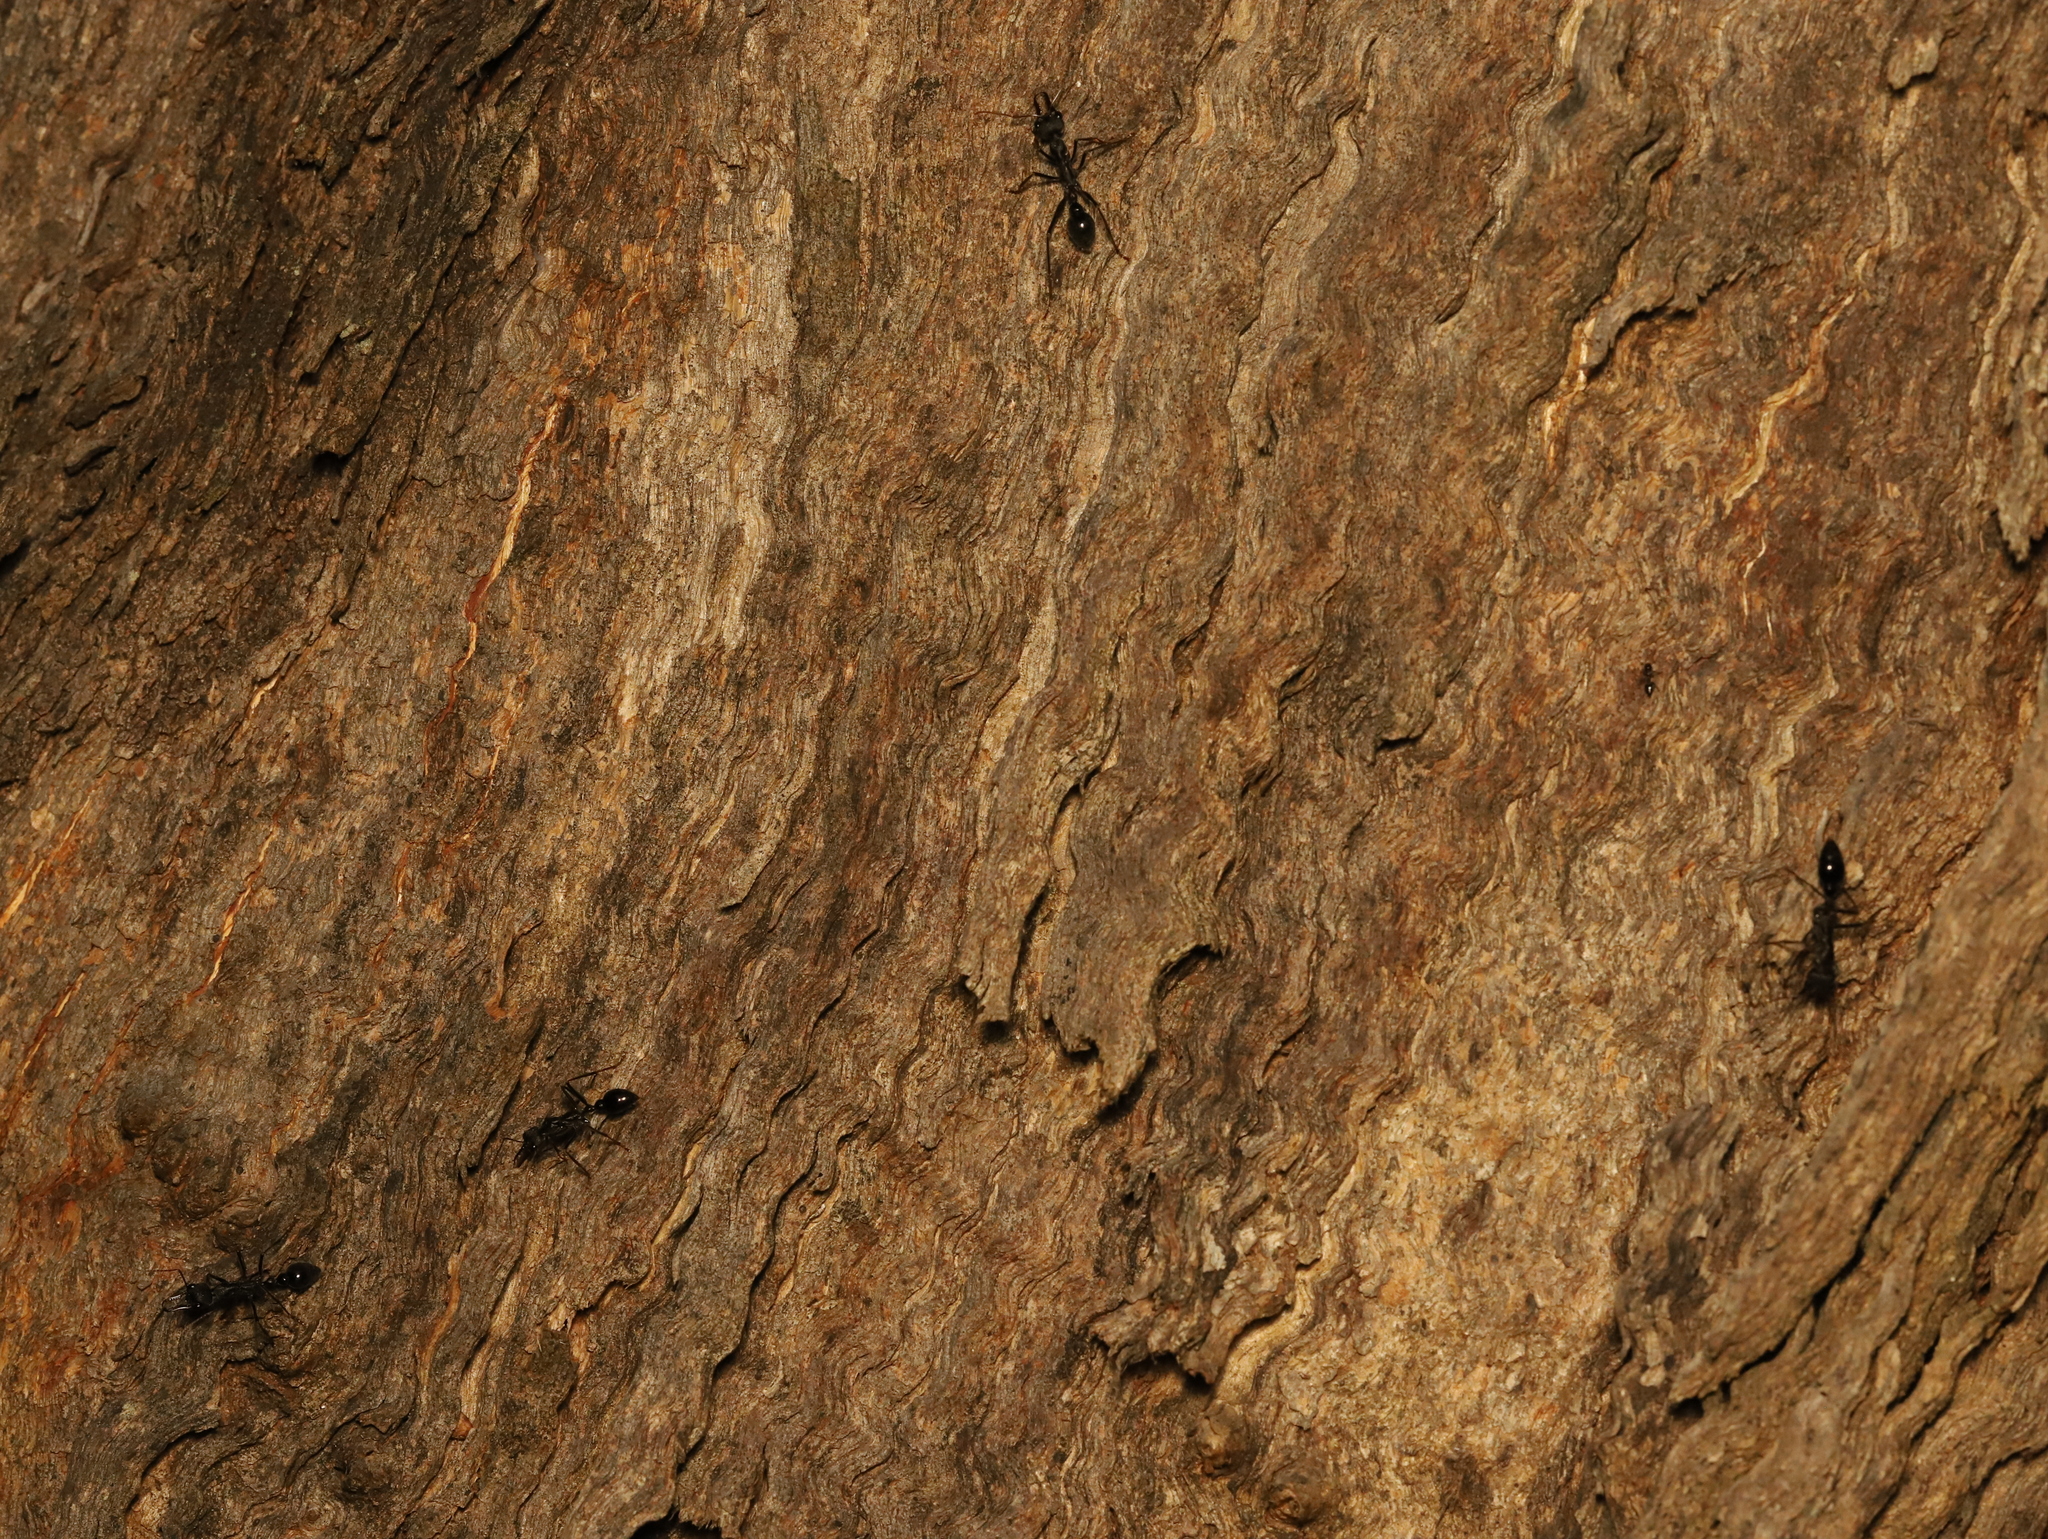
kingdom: Animalia
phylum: Arthropoda
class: Insecta
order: Hymenoptera
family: Formicidae
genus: Myrmecia
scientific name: Myrmecia pyriformis
